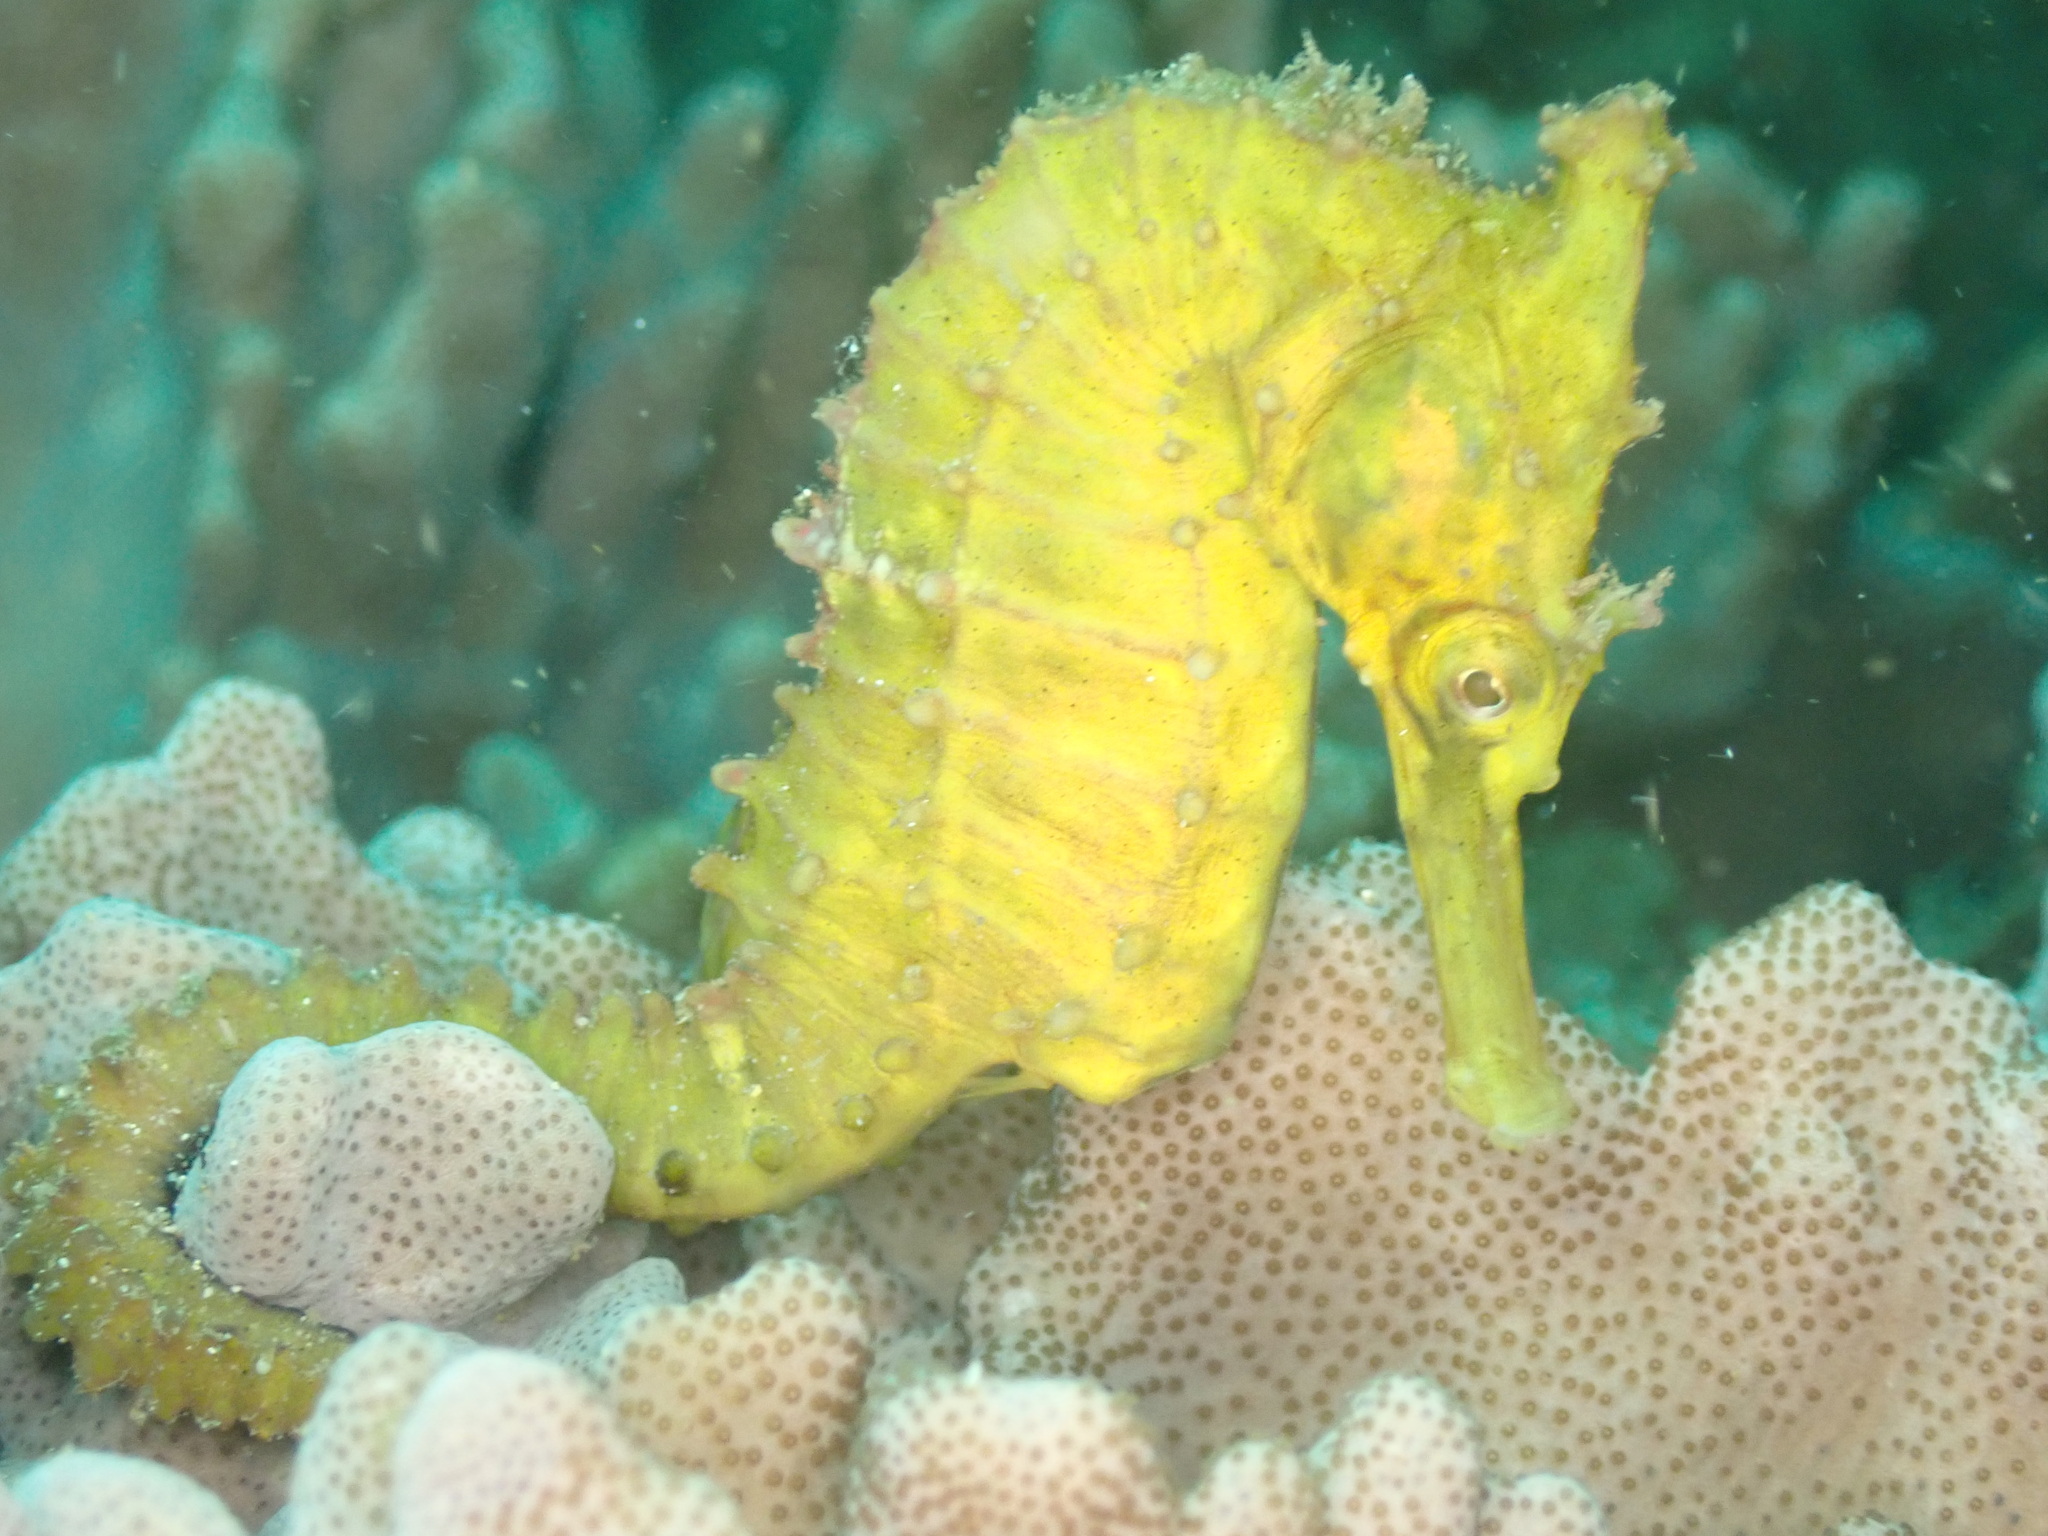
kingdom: Animalia
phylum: Chordata
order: Syngnathiformes
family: Syngnathidae
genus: Hippocampus
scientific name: Hippocampus whitei
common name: New holland seahorse
